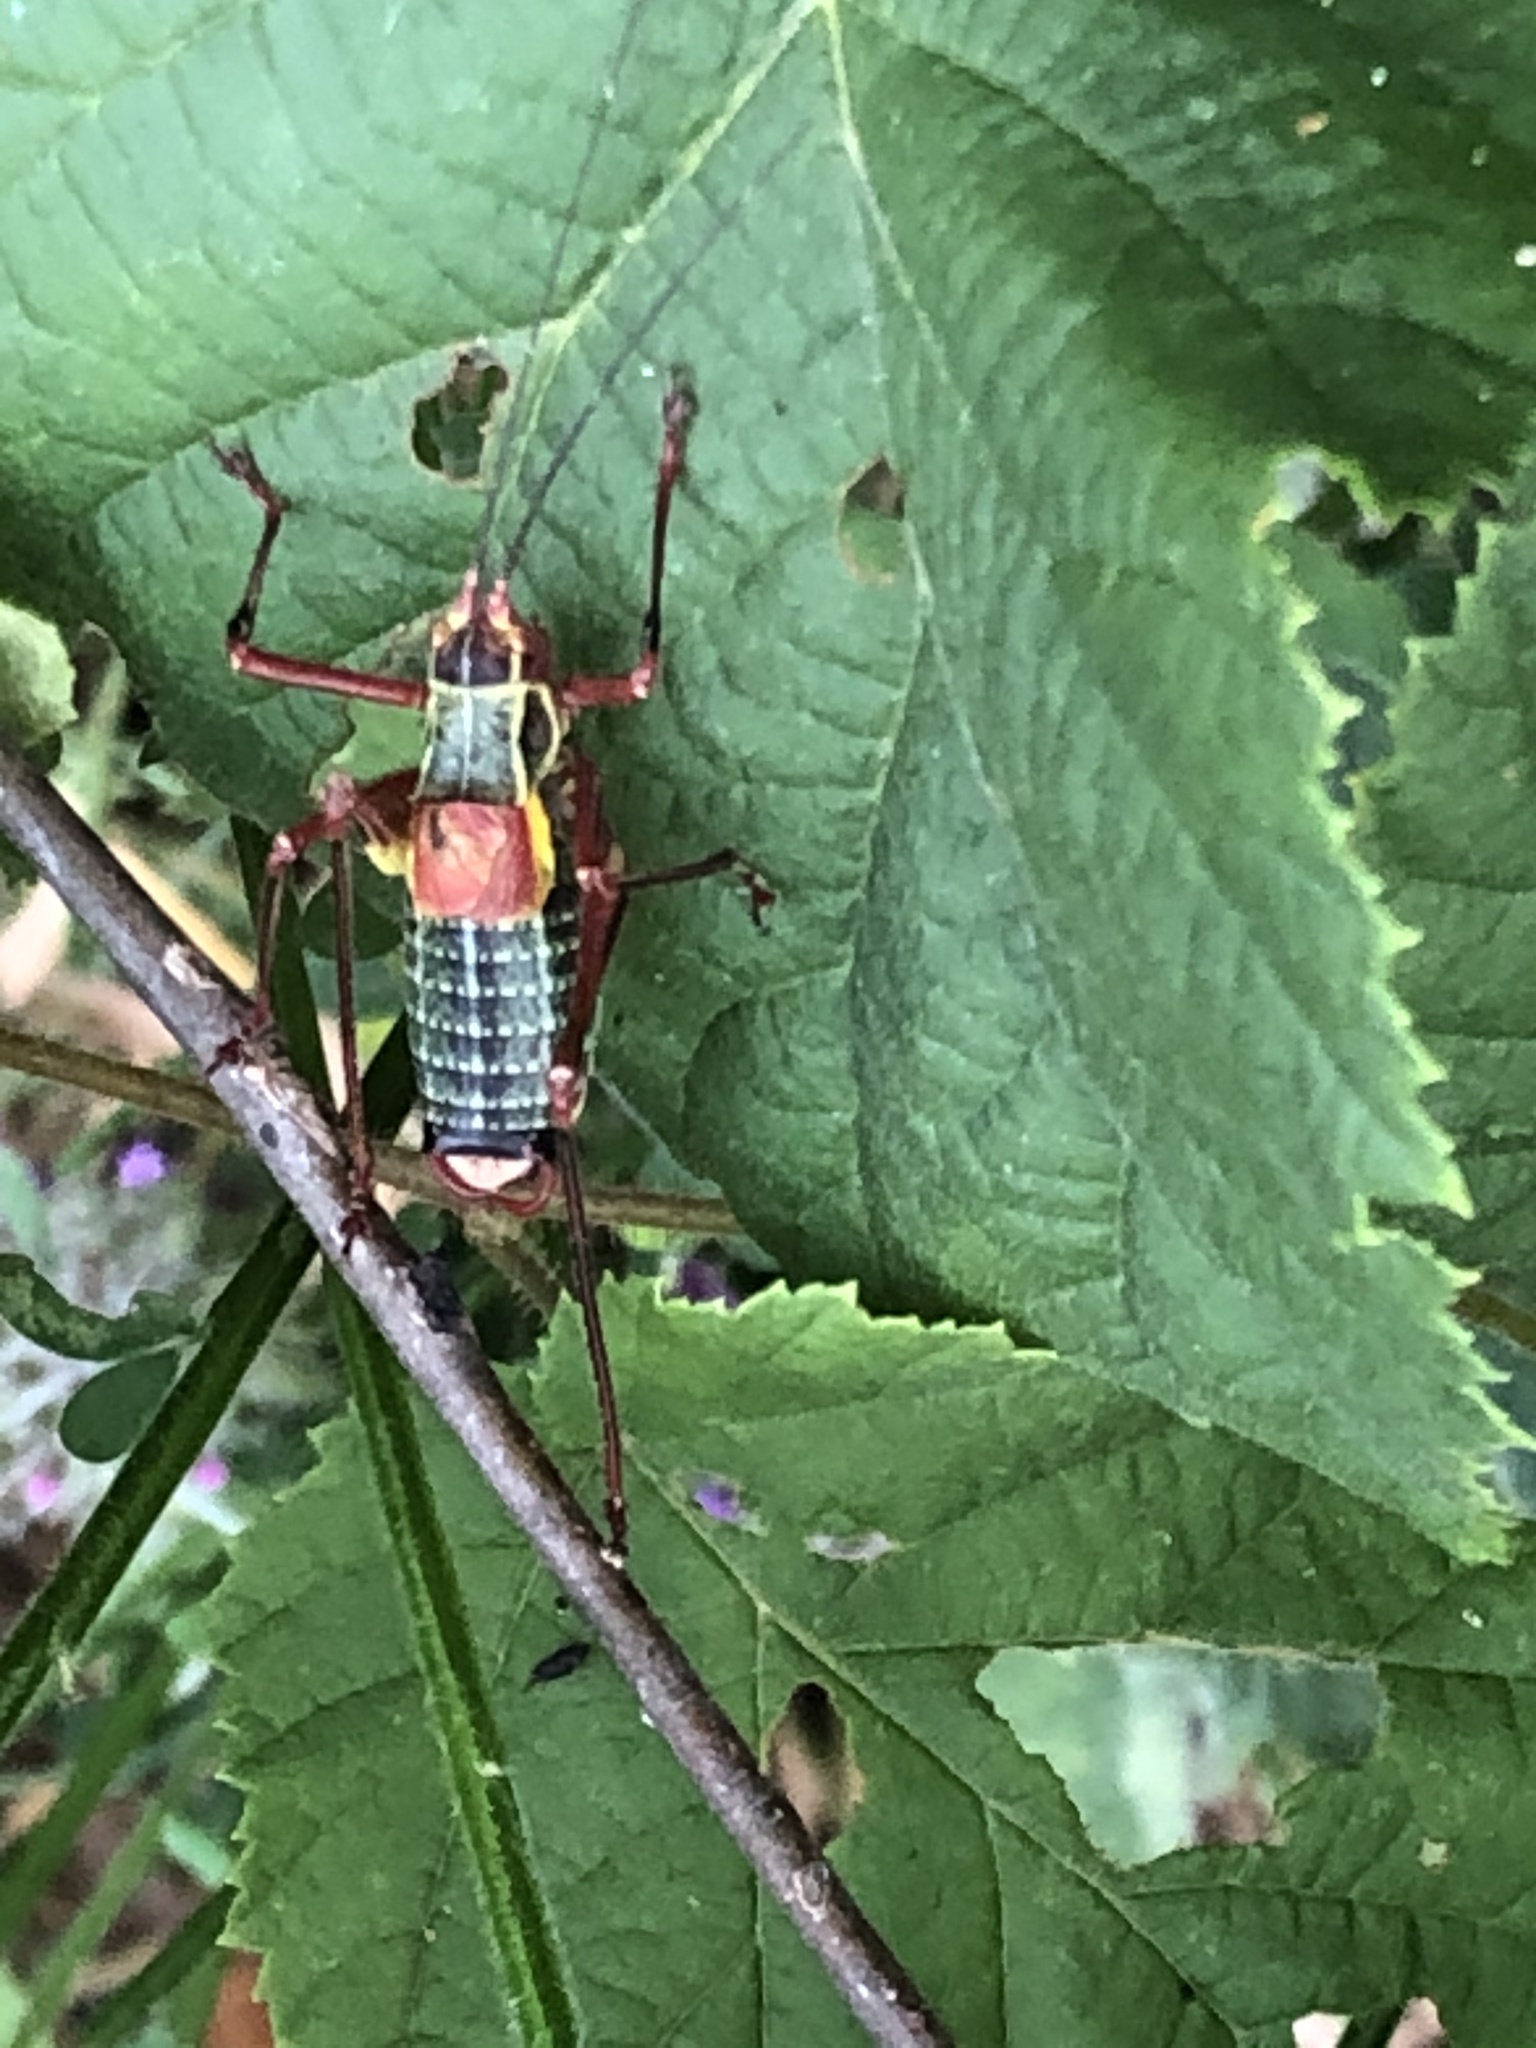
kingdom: Animalia
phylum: Arthropoda
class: Insecta
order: Orthoptera
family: Tettigoniidae
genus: Barbitistes
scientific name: Barbitistes obtusus
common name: Alpine saw bush-cricket
